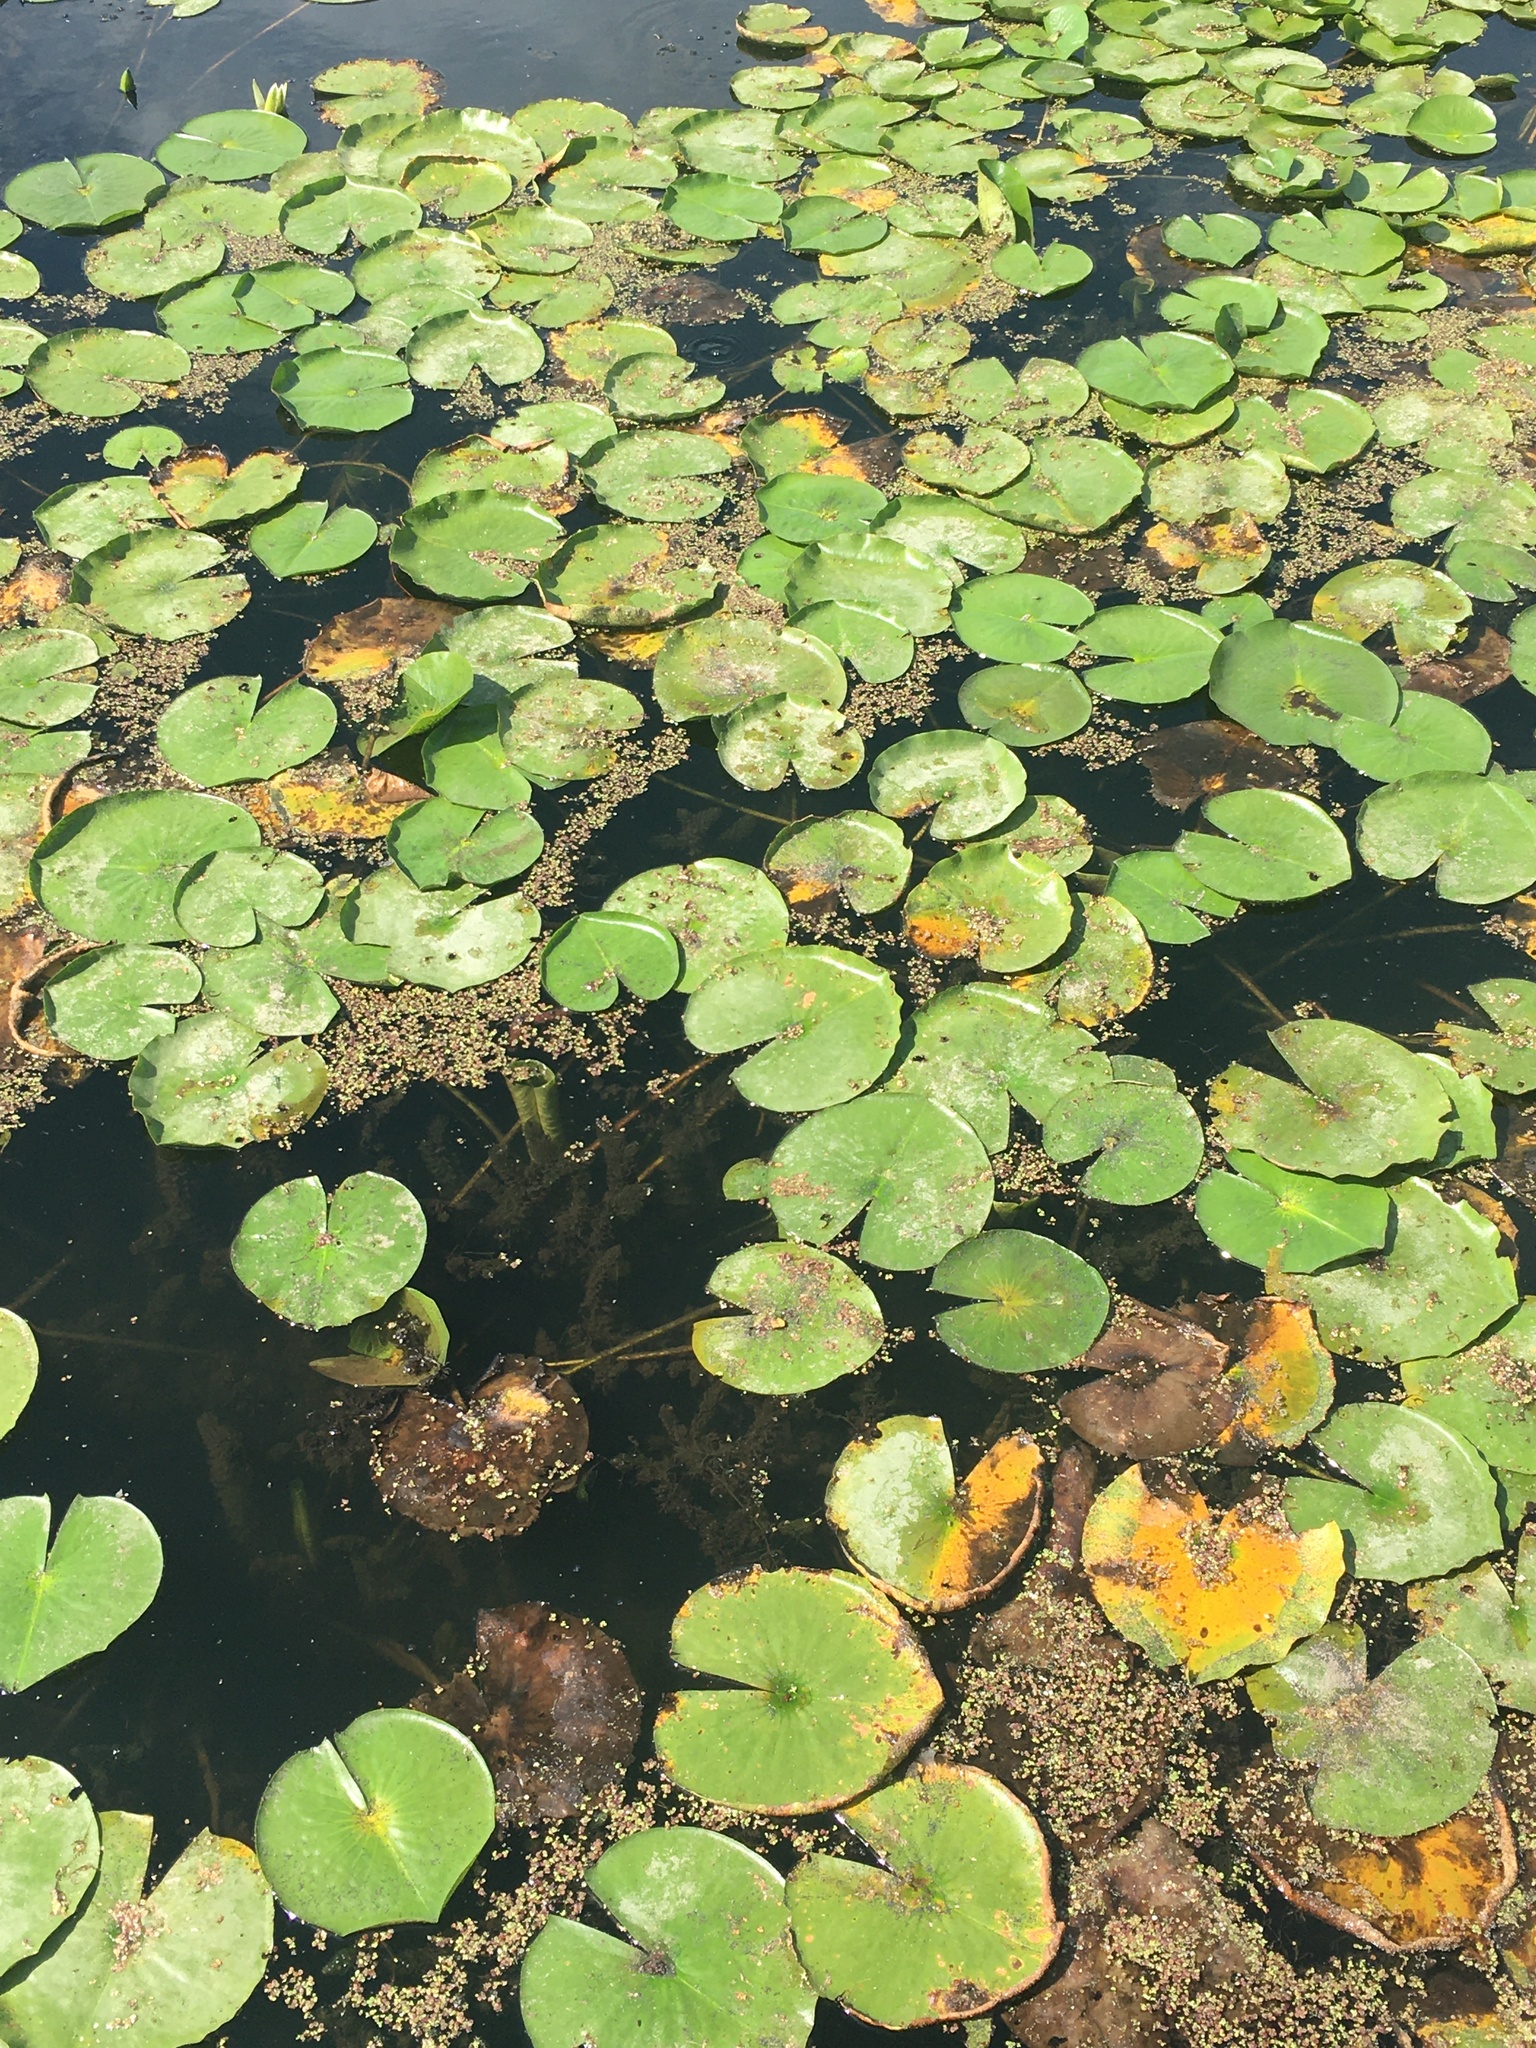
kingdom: Plantae
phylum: Tracheophyta
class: Magnoliopsida
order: Nymphaeales
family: Nymphaeaceae
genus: Nymphaea
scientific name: Nymphaea odorata
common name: Fragrant water-lily
